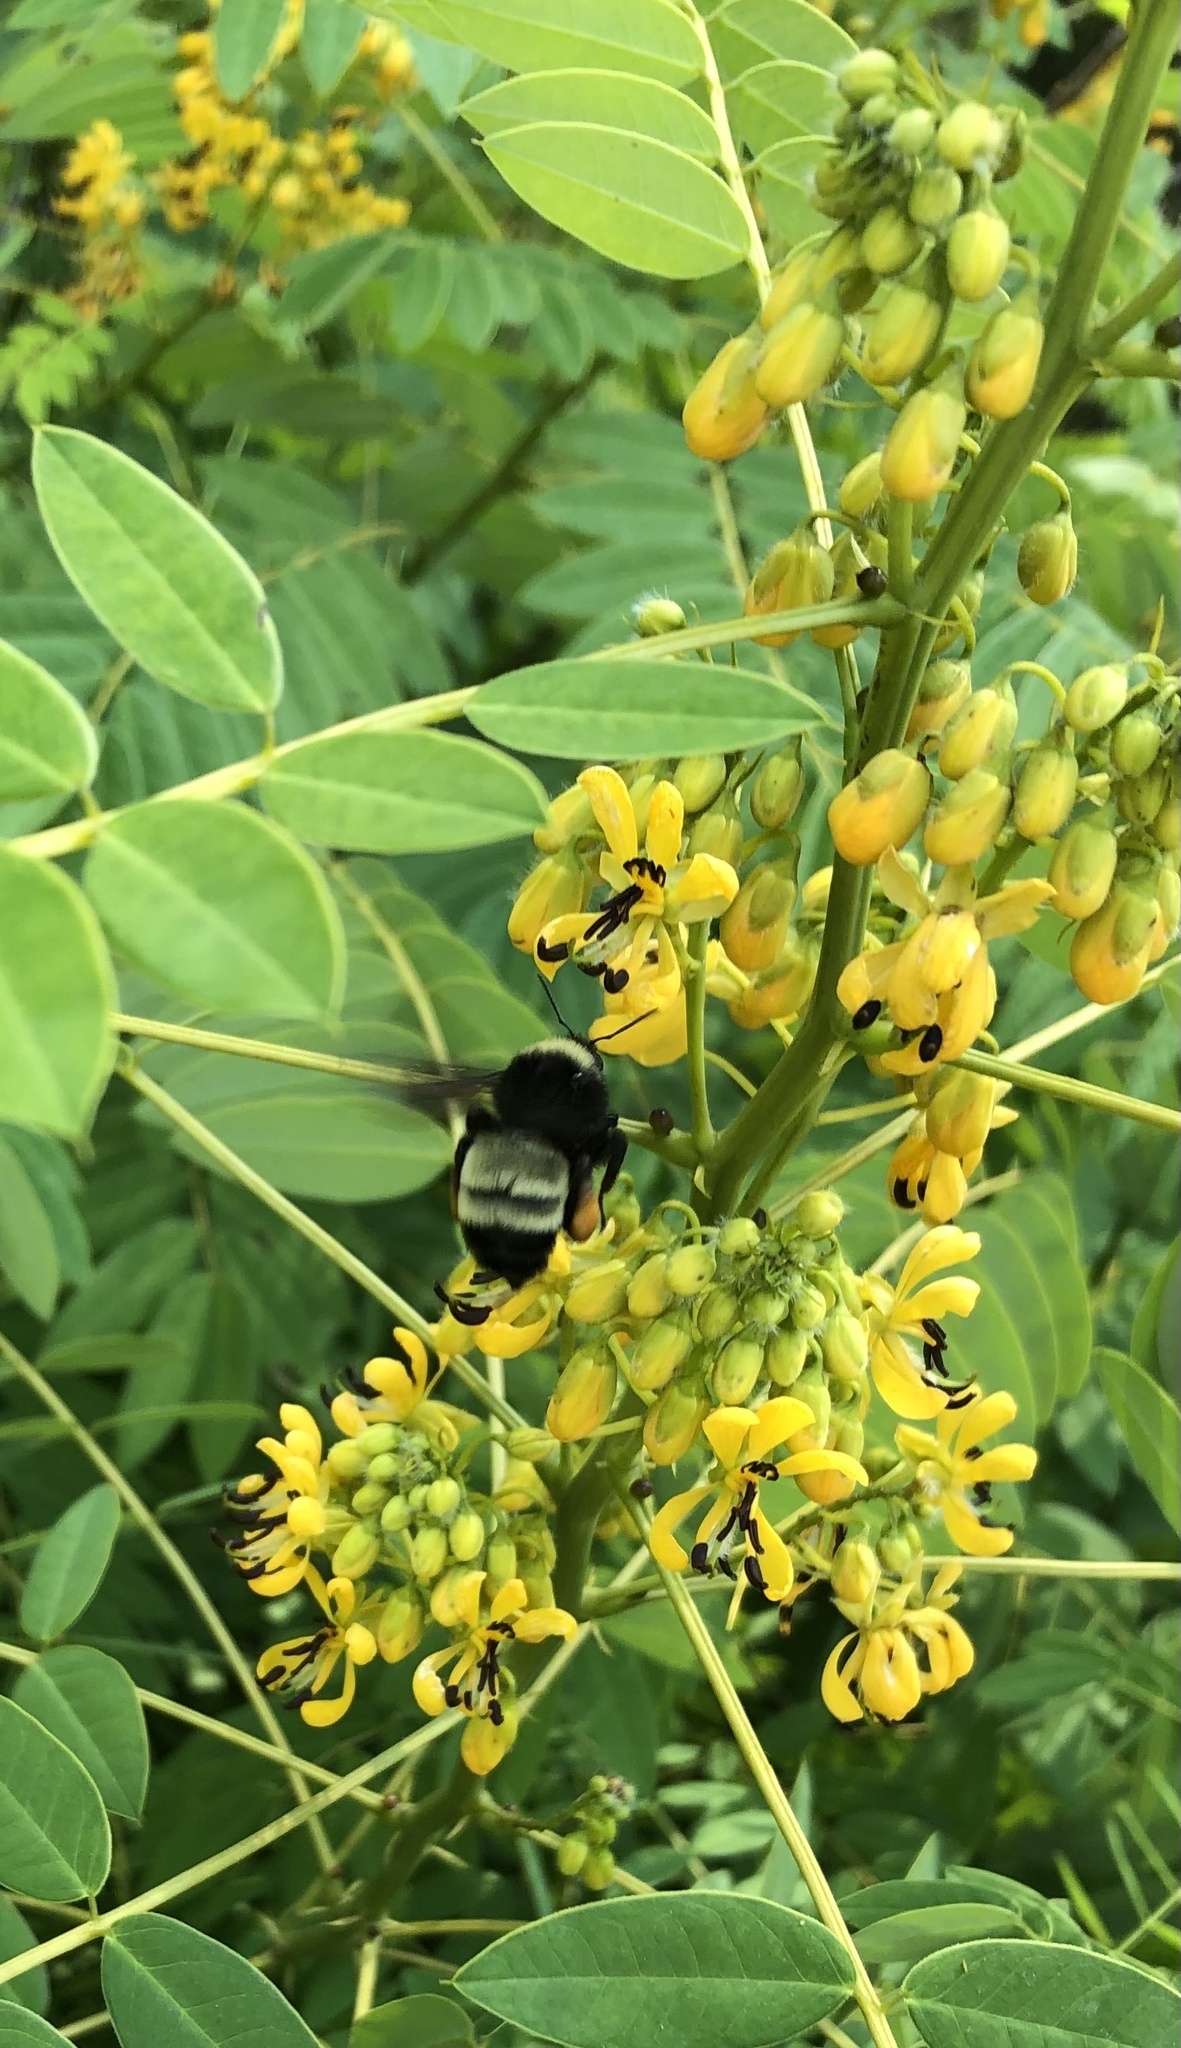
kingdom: Animalia
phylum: Arthropoda
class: Insecta
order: Hymenoptera
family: Apidae
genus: Bombus
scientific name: Bombus pensylvanicus
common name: Bumble bee
